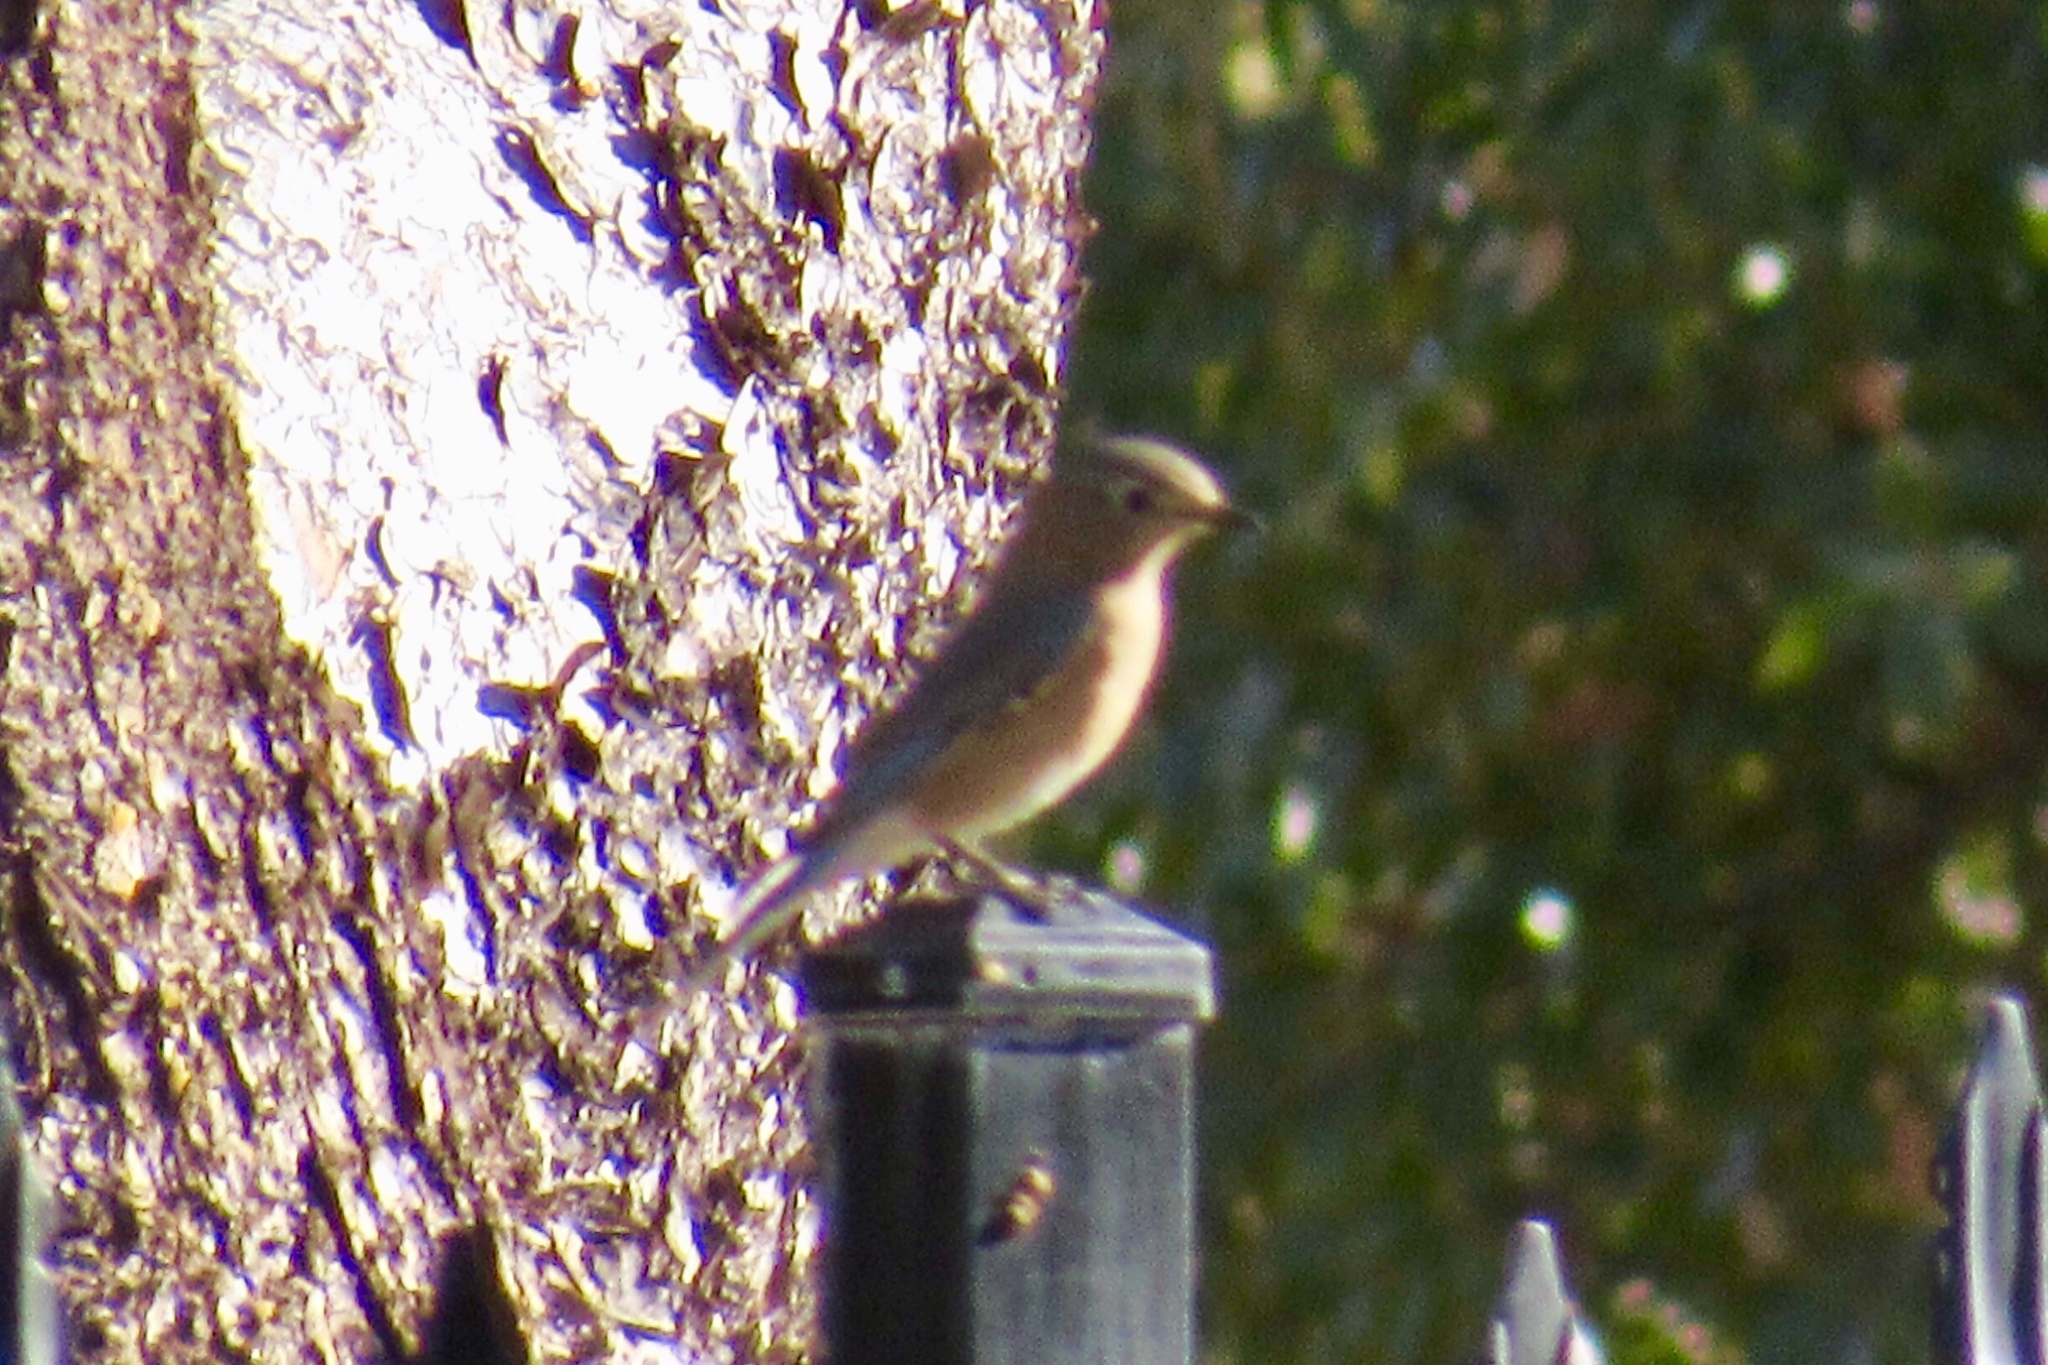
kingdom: Animalia
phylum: Chordata
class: Aves
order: Passeriformes
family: Turdidae
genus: Sialia
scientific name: Sialia sialis
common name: Eastern bluebird
